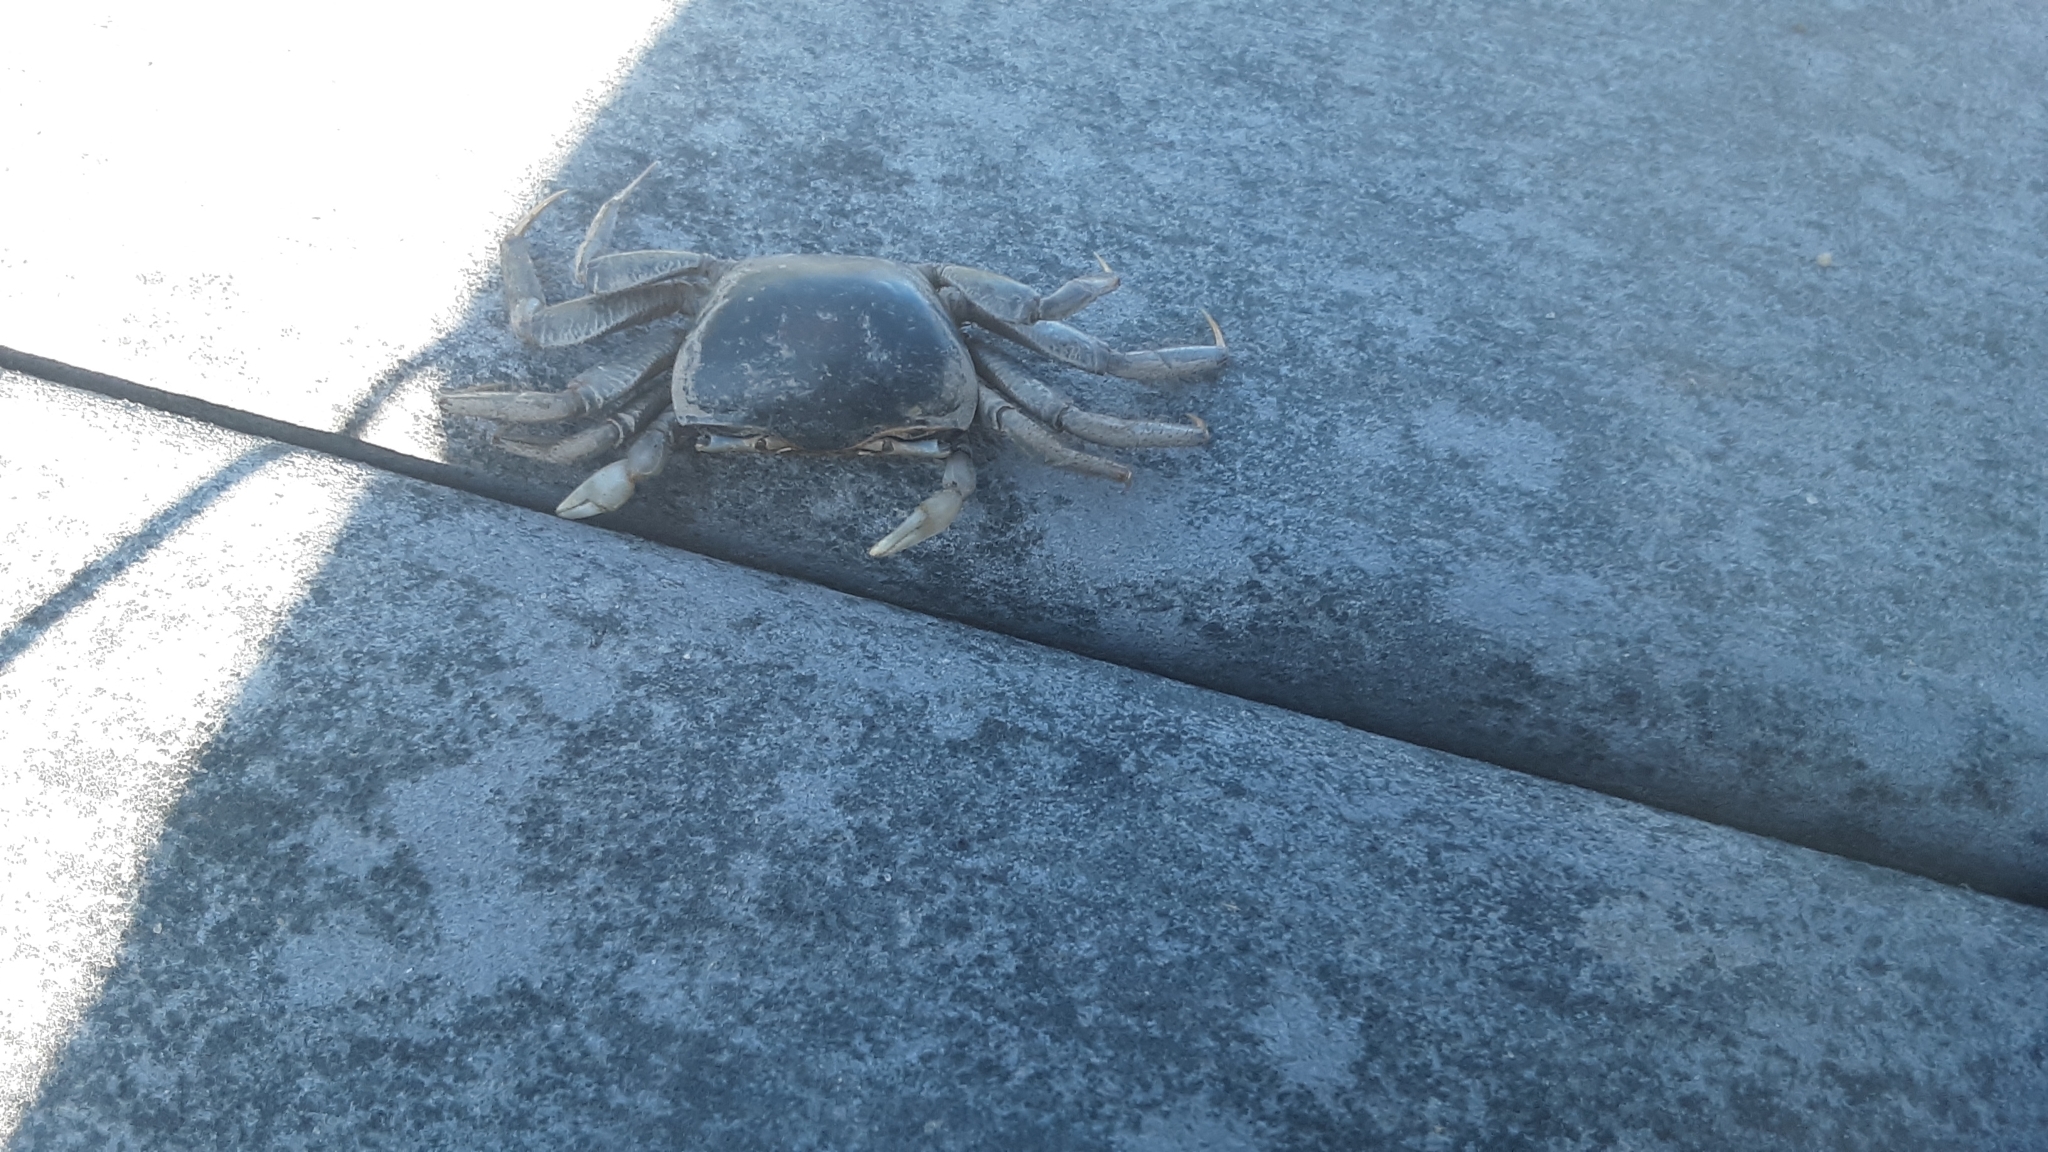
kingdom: Animalia
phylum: Arthropoda
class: Malacostraca
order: Decapoda
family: Ocypodidae
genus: Minuca
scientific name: Minuca pugnax
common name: Mud fiddler crab
